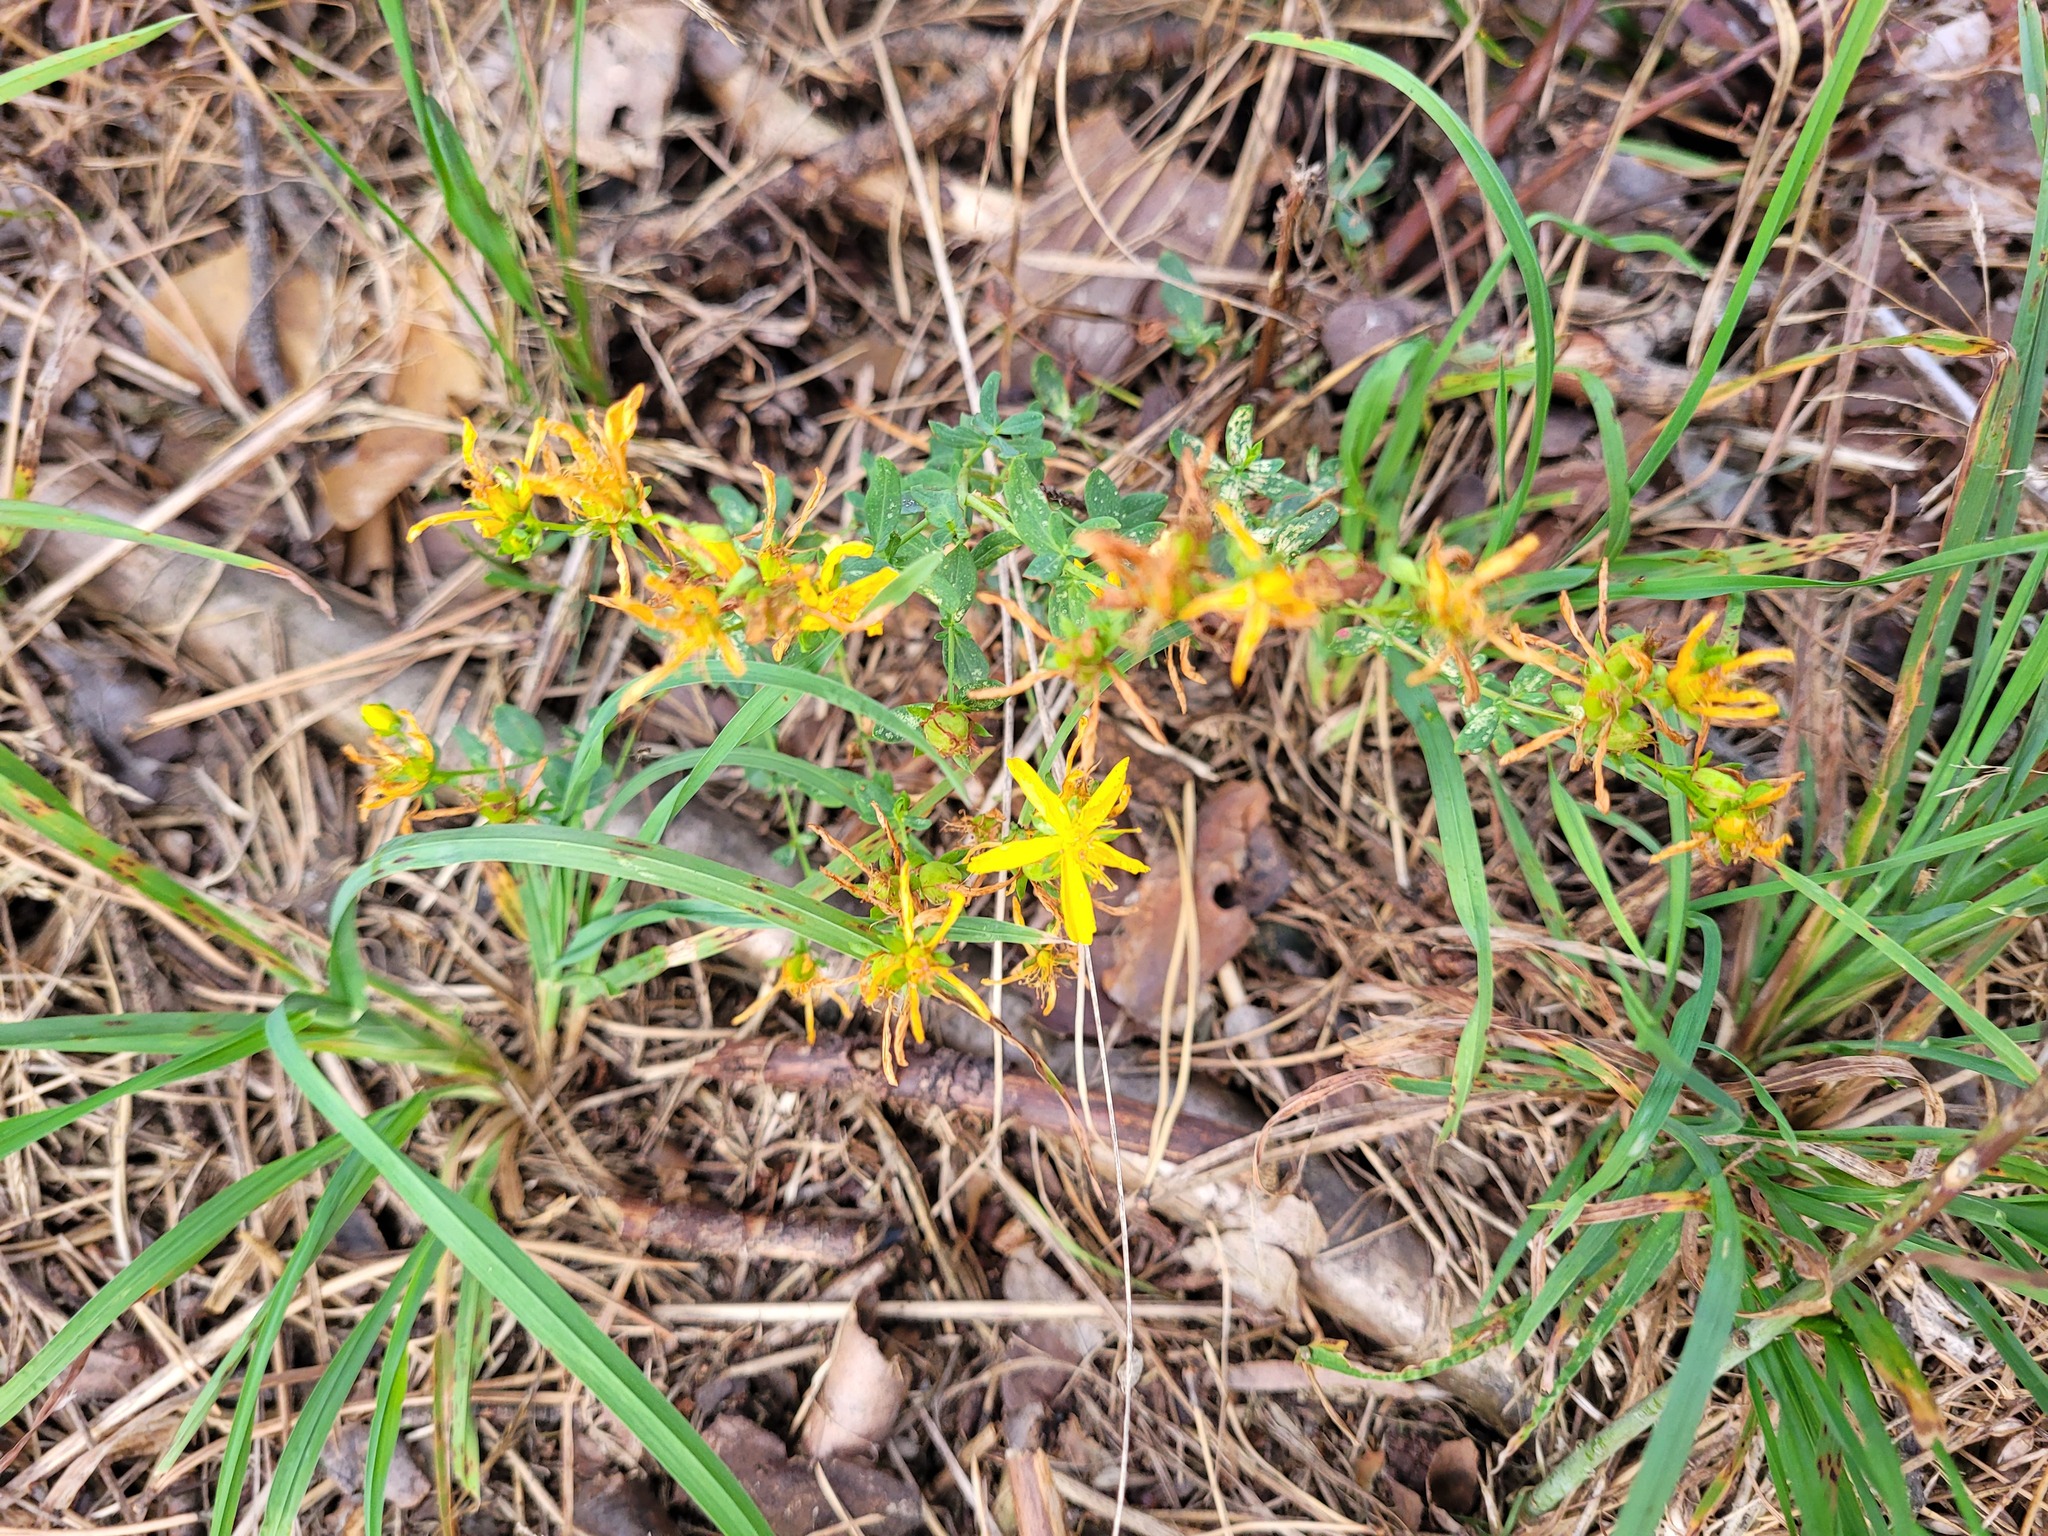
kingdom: Plantae
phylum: Tracheophyta
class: Magnoliopsida
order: Malpighiales
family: Hypericaceae
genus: Hypericum
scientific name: Hypericum perforatum
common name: Common st. johnswort
